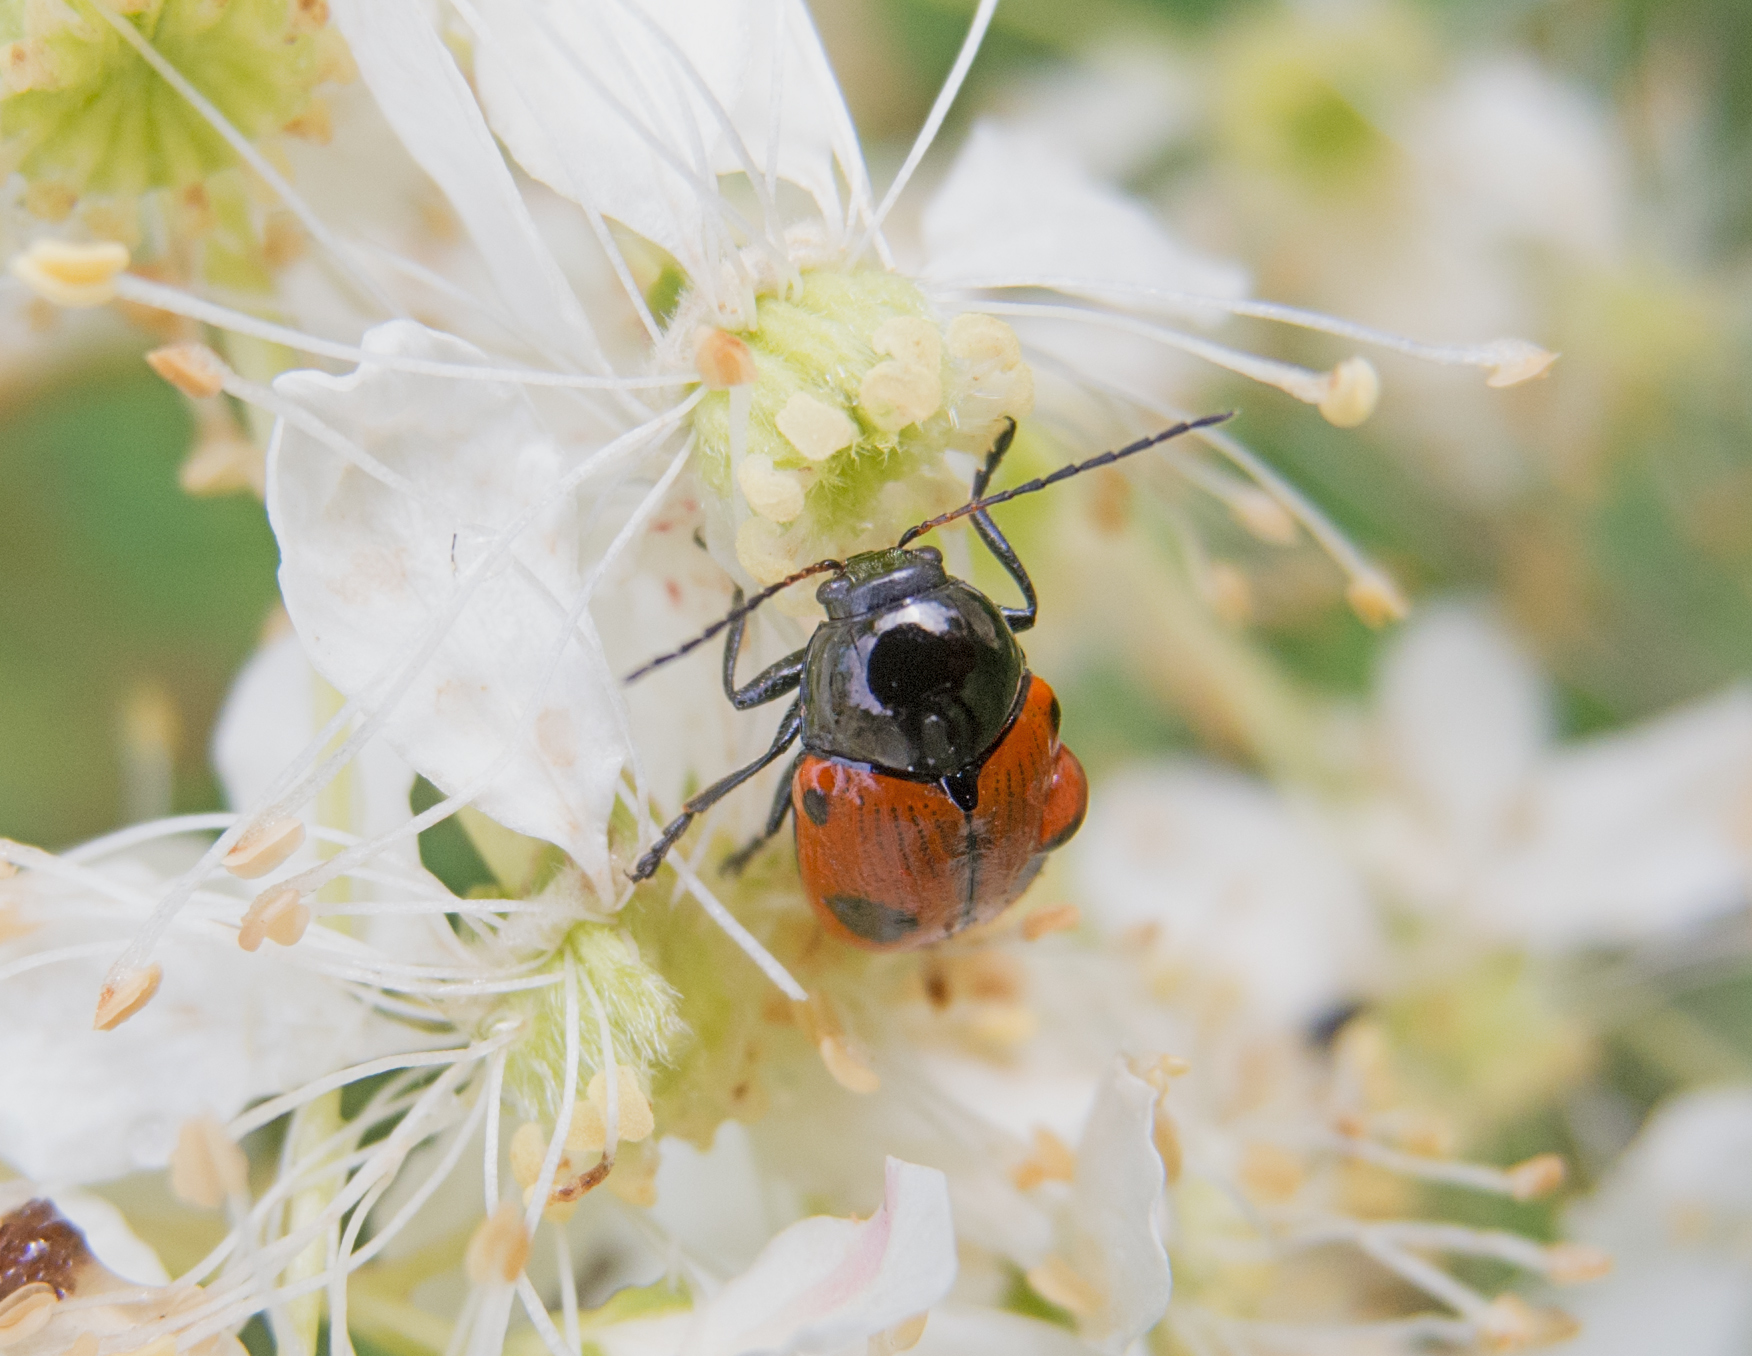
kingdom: Animalia
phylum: Arthropoda
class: Insecta
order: Coleoptera
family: Chrysomelidae
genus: Chiridopsis
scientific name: Chiridopsis bipunctata
